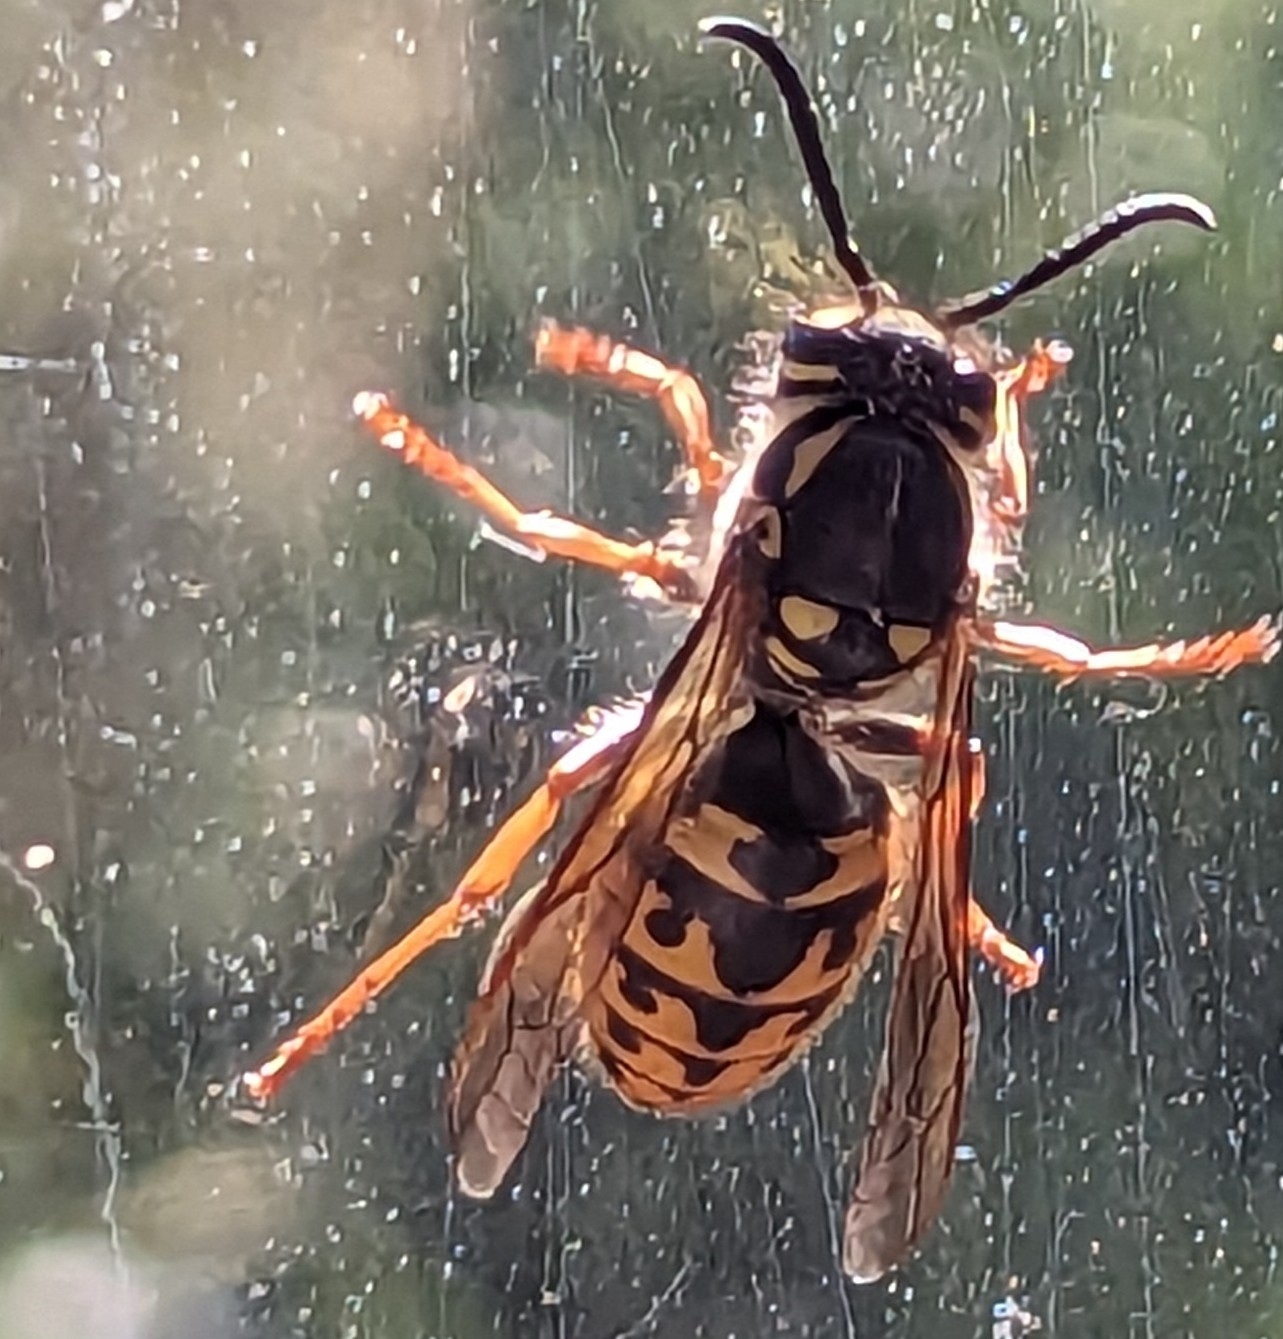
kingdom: Animalia
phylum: Arthropoda
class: Insecta
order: Hymenoptera
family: Vespidae
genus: Vespula
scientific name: Vespula germanica
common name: German wasp
